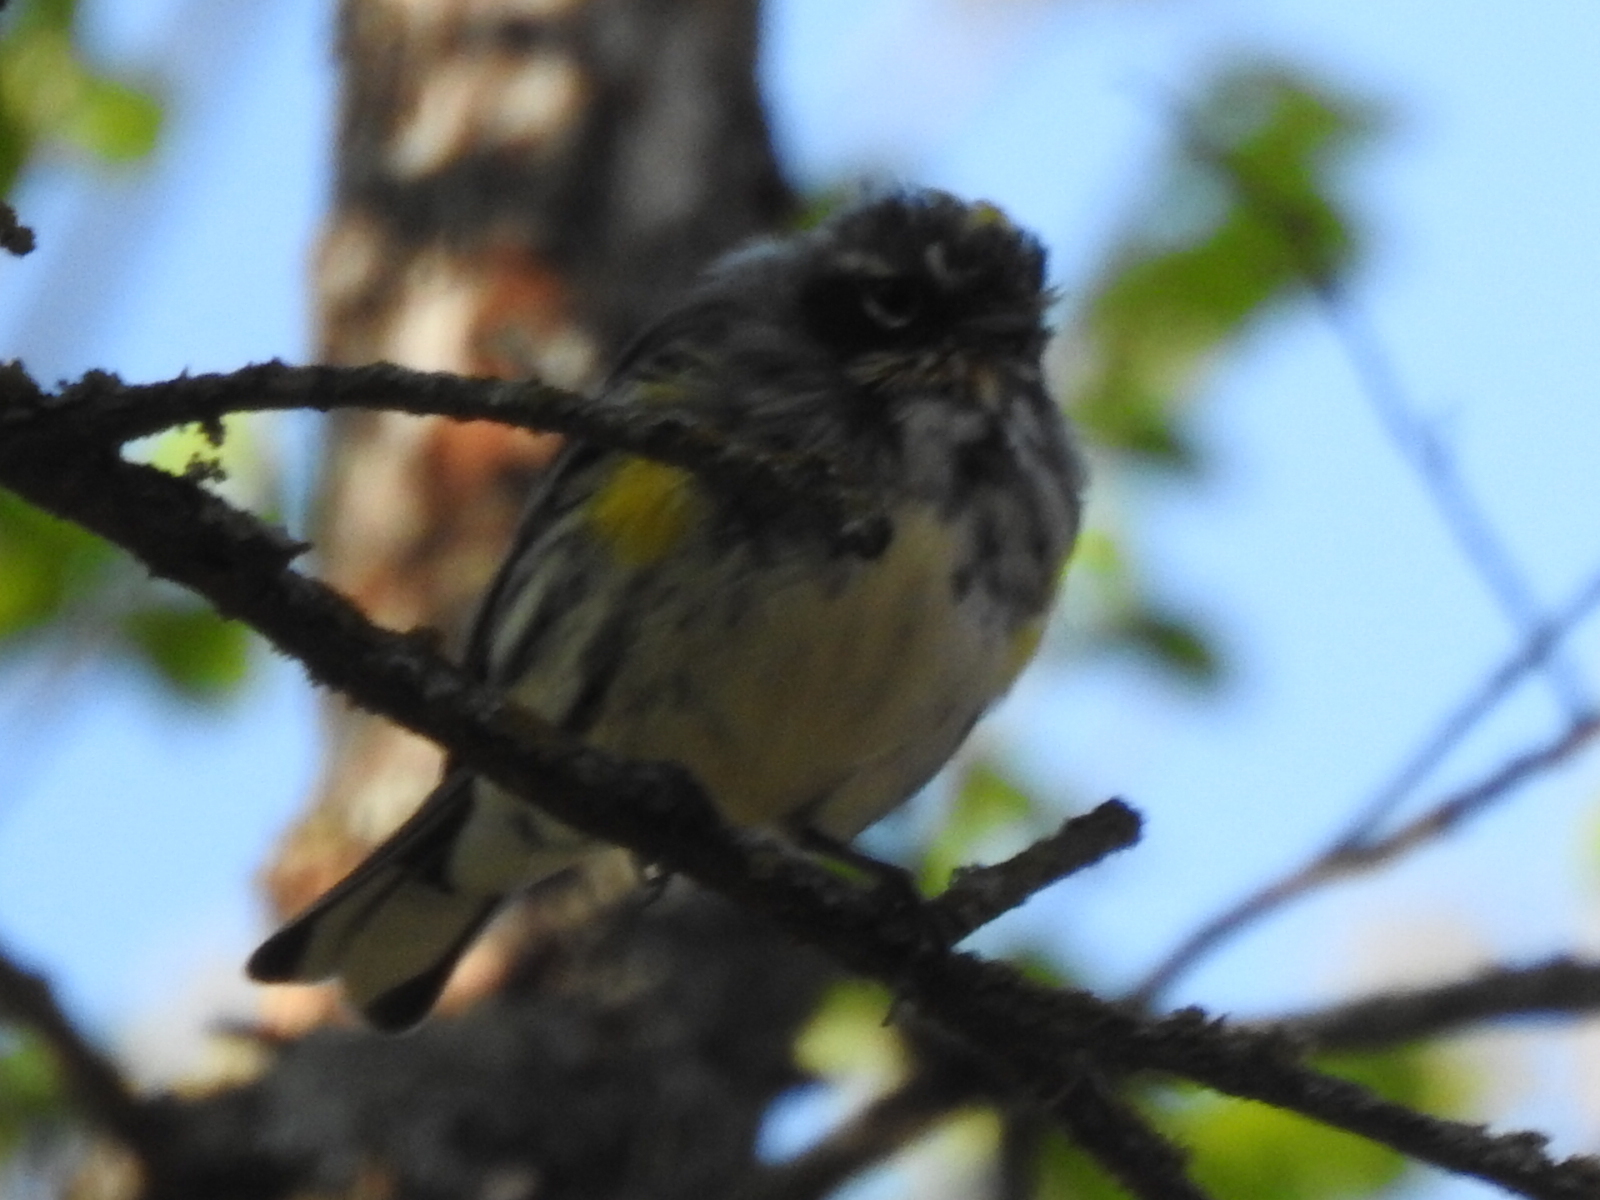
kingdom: Animalia
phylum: Chordata
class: Aves
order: Passeriformes
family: Parulidae
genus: Setophaga
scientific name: Setophaga coronata
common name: Myrtle warbler
